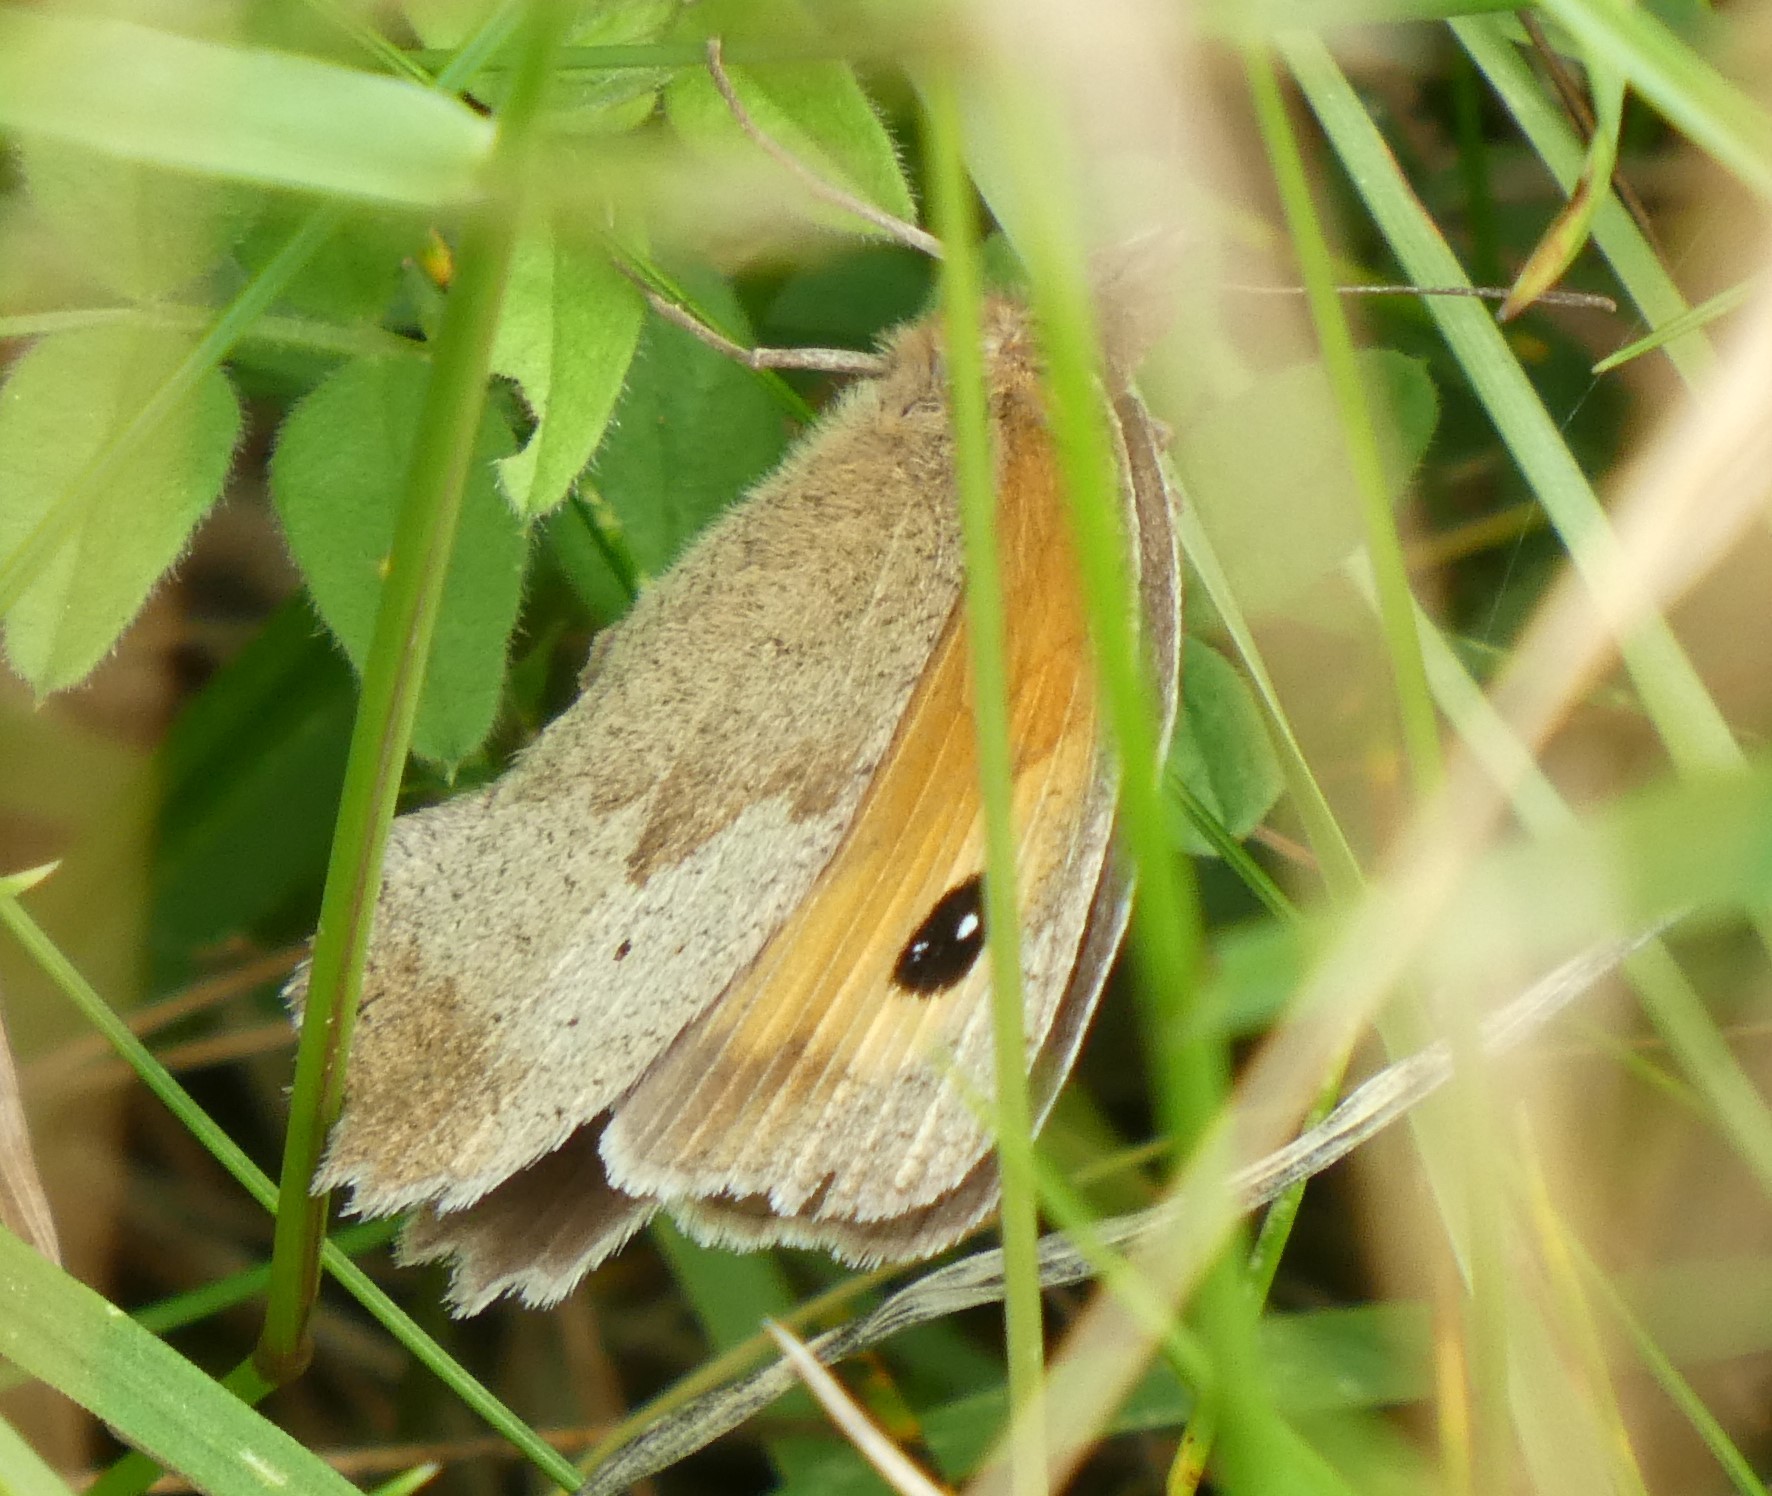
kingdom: Animalia
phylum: Arthropoda
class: Insecta
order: Lepidoptera
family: Nymphalidae
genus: Maniola
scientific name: Maniola jurtina
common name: Meadow brown
